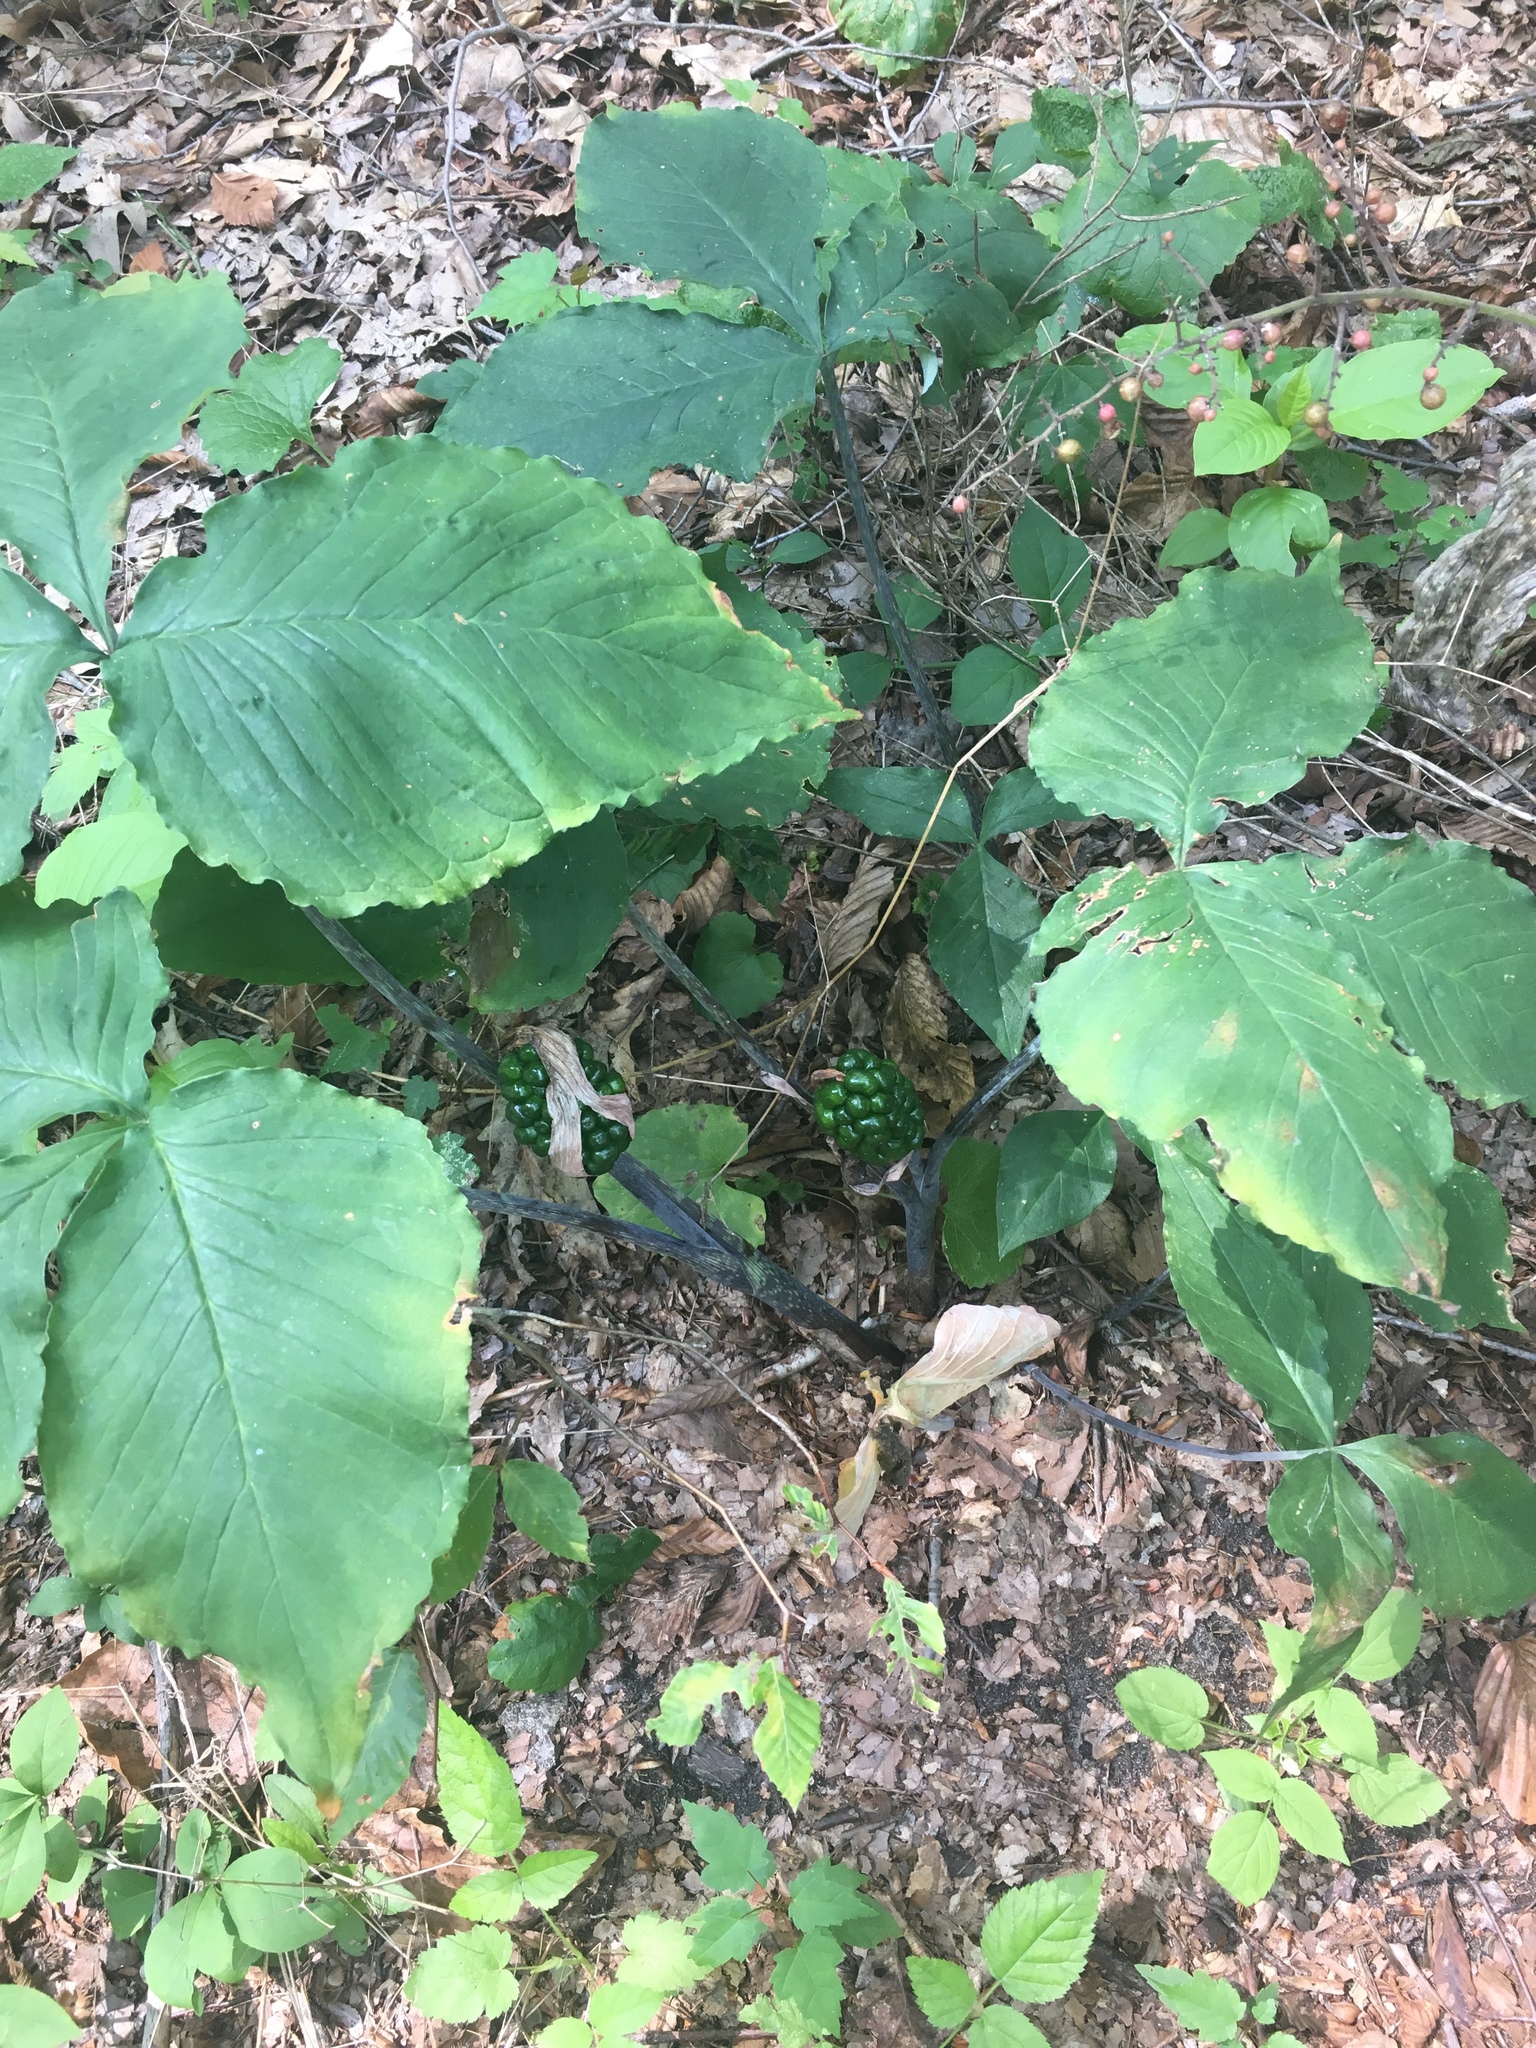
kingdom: Plantae
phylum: Tracheophyta
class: Liliopsida
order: Alismatales
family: Araceae
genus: Arisaema
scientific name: Arisaema triphyllum
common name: Jack-in-the-pulpit
